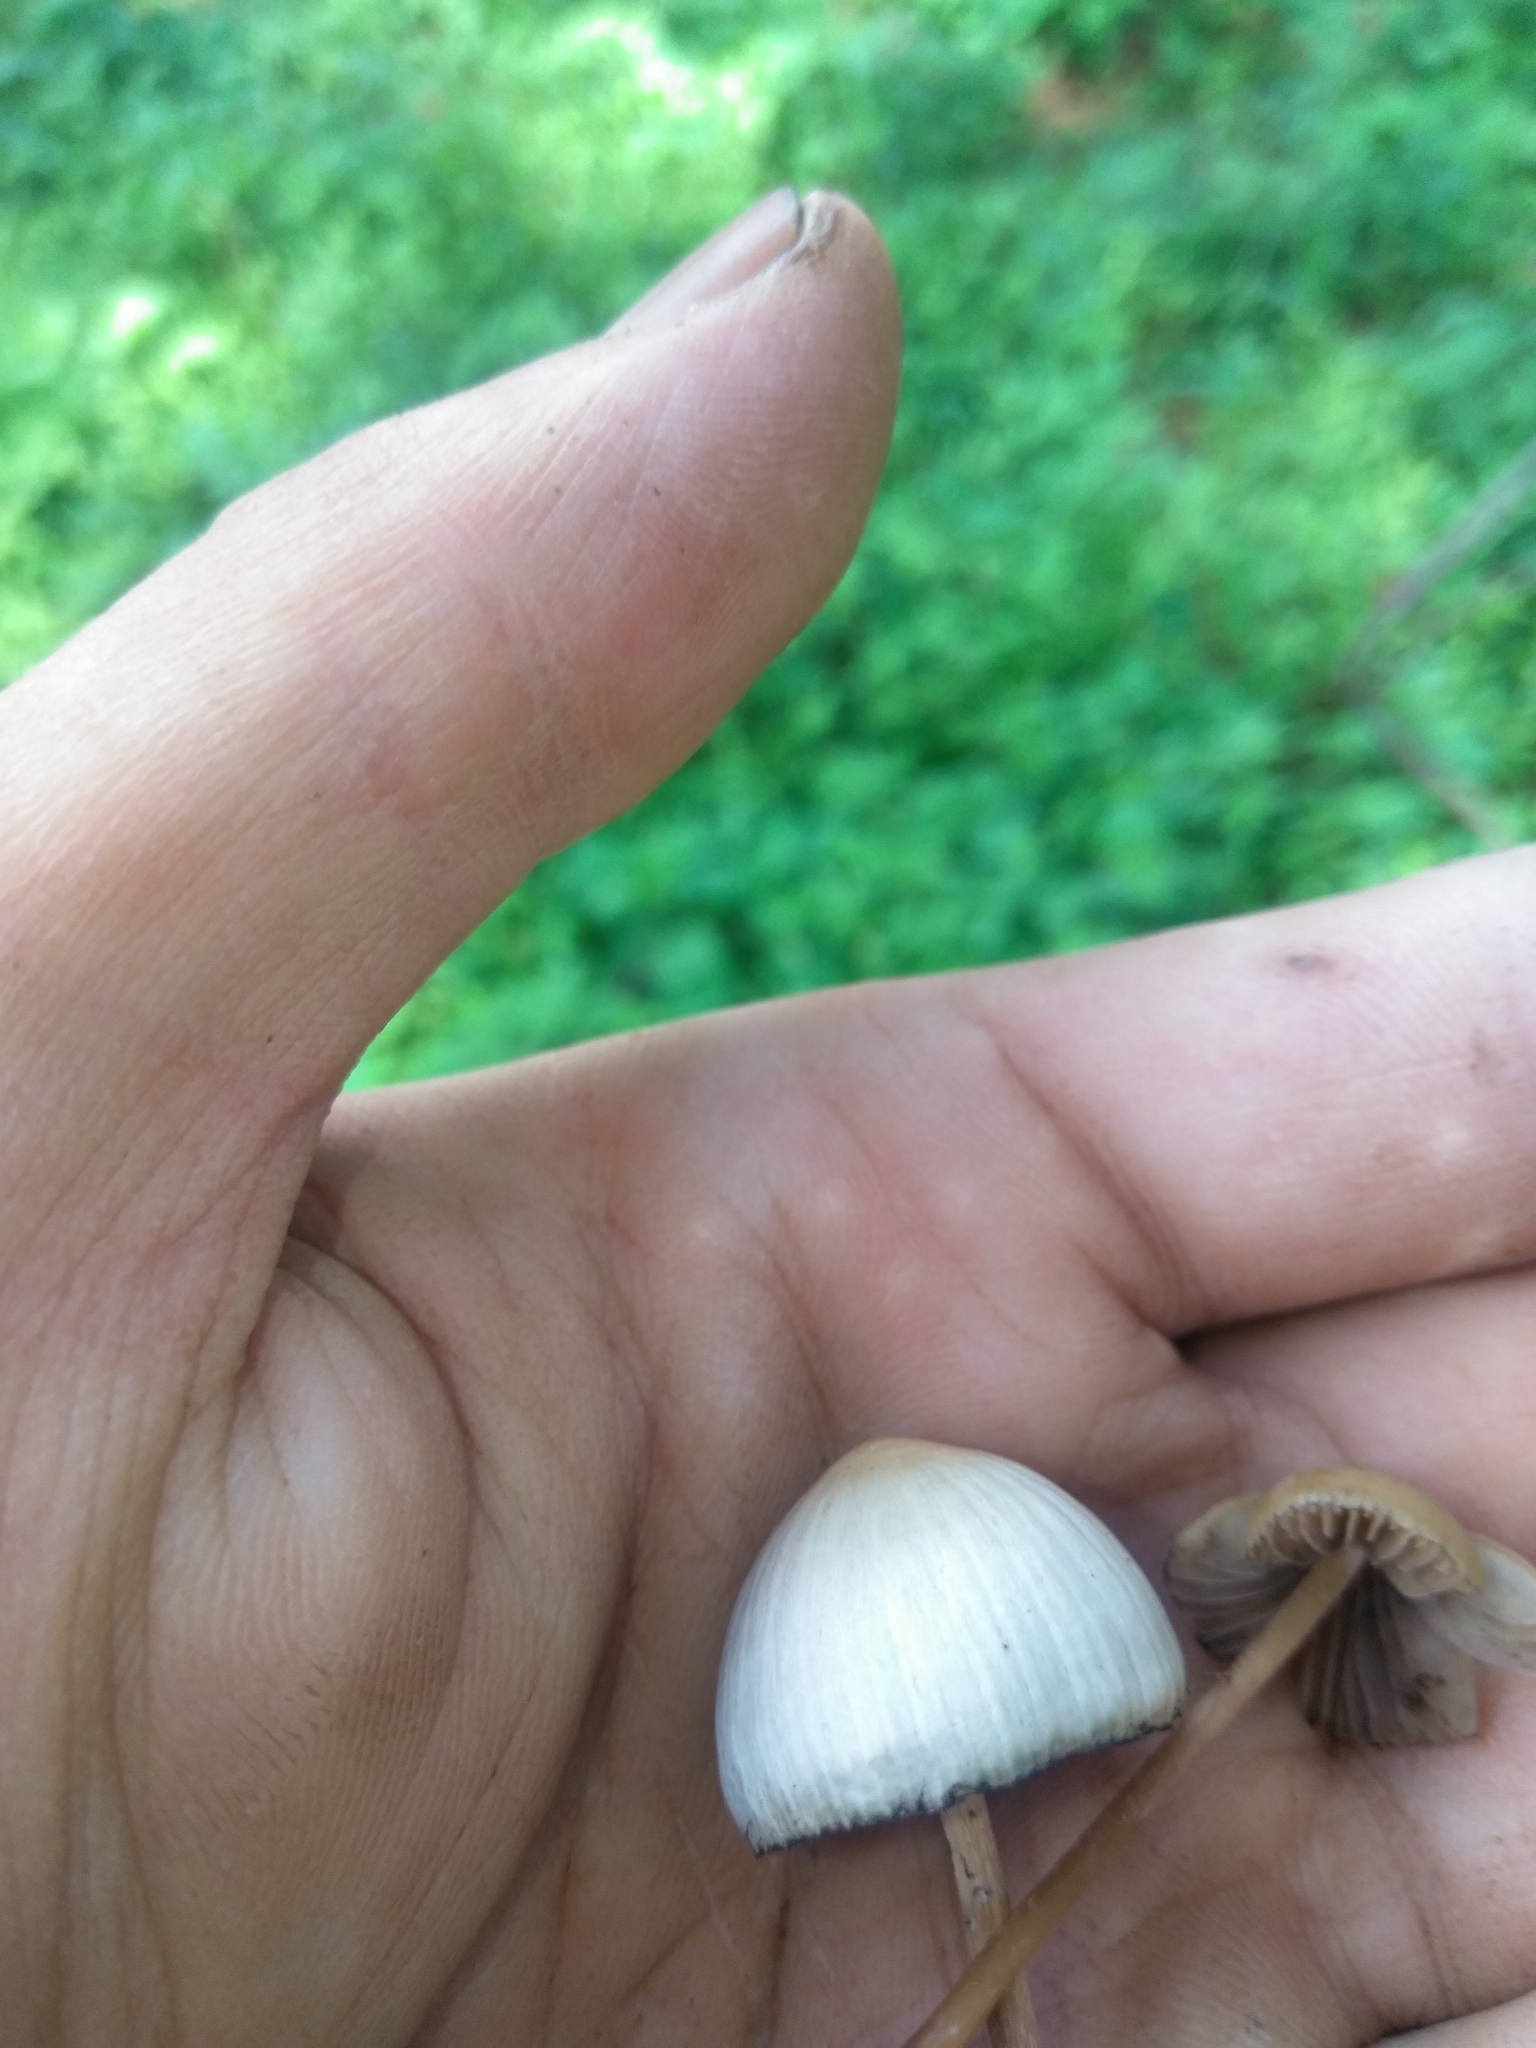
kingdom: Fungi
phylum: Basidiomycota
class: Agaricomycetes
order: Agaricales
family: Hymenogastraceae
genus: Psilocybe
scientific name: Psilocybe mexicana
